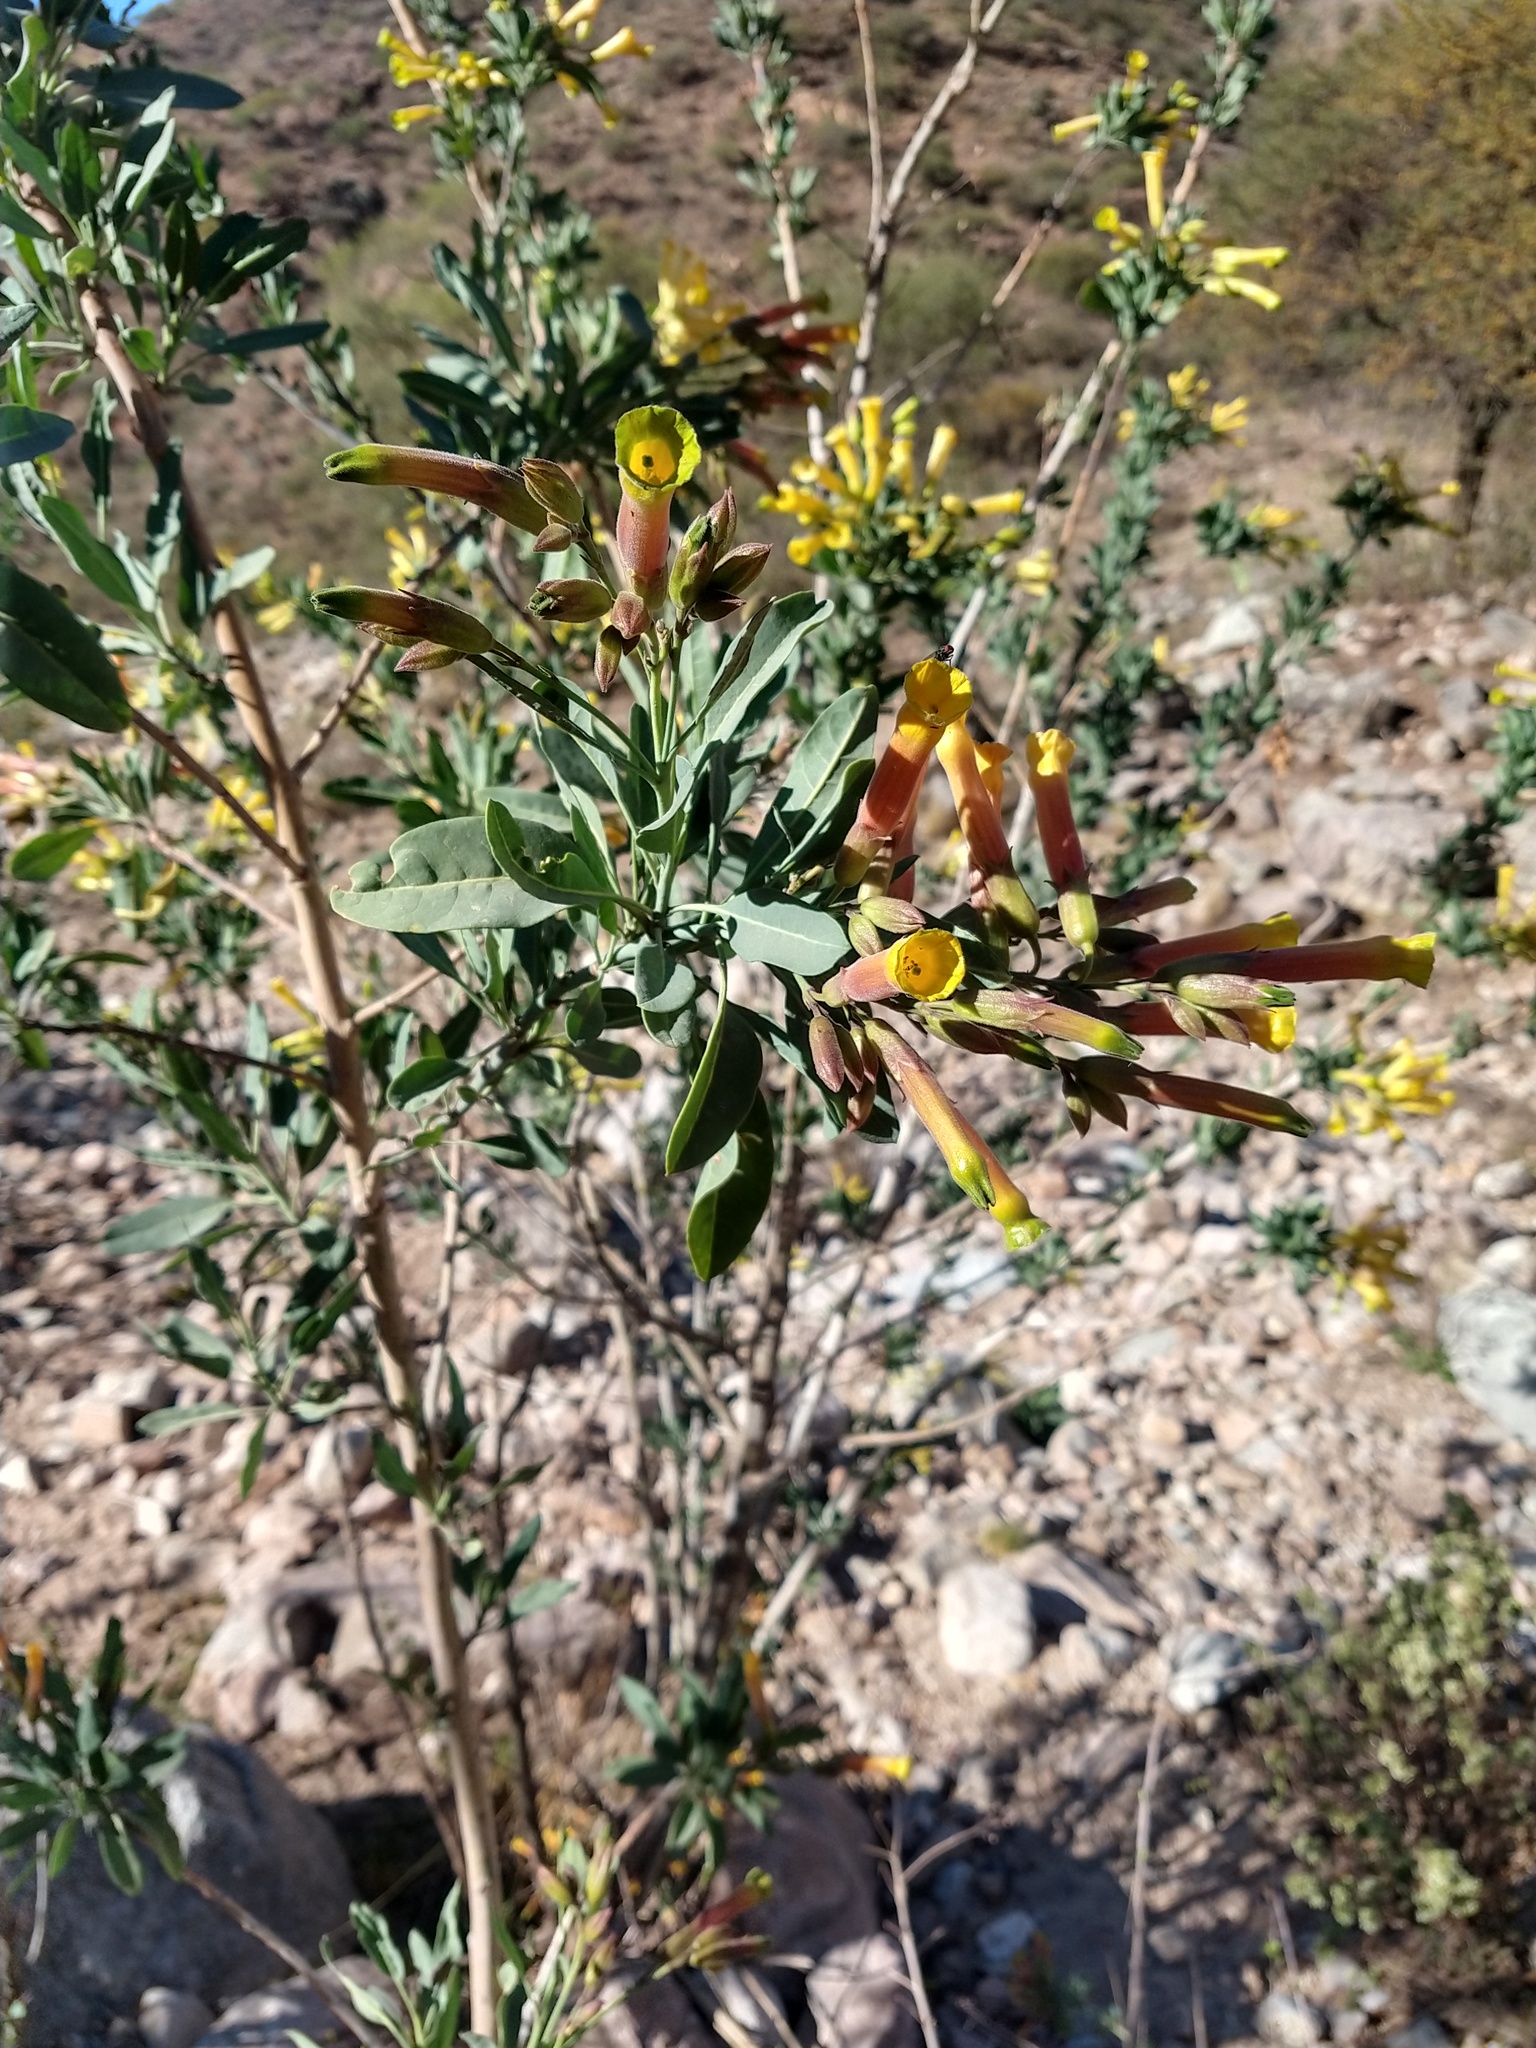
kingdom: Plantae
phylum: Tracheophyta
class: Magnoliopsida
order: Solanales
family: Solanaceae
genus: Nicotiana
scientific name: Nicotiana glauca
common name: Tree tobacco
